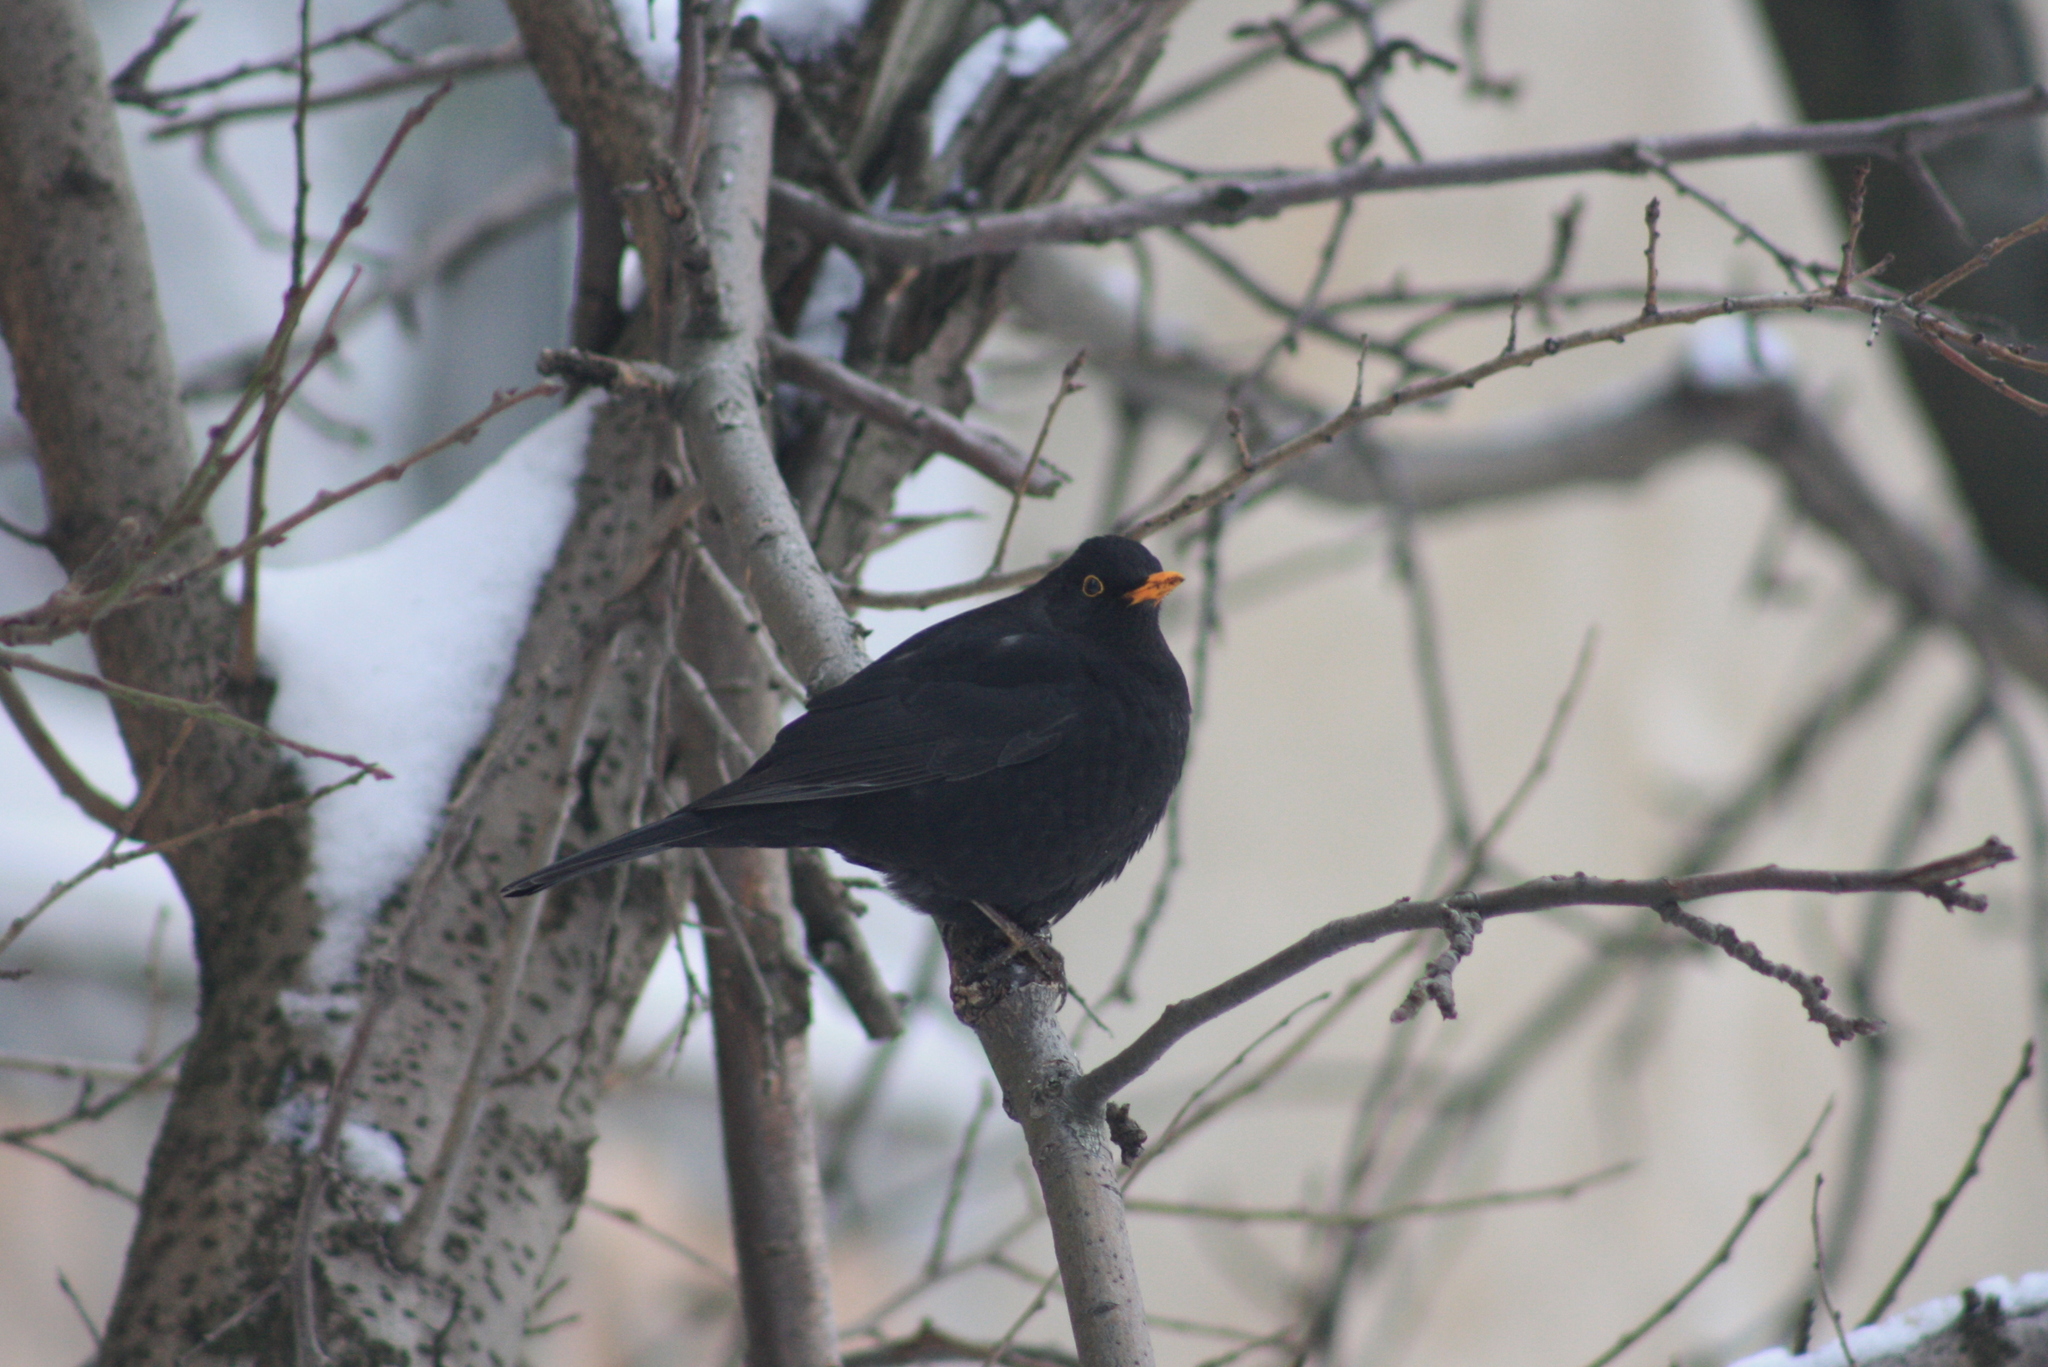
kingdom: Animalia
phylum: Chordata
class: Aves
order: Passeriformes
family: Turdidae
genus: Turdus
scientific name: Turdus merula
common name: Common blackbird
